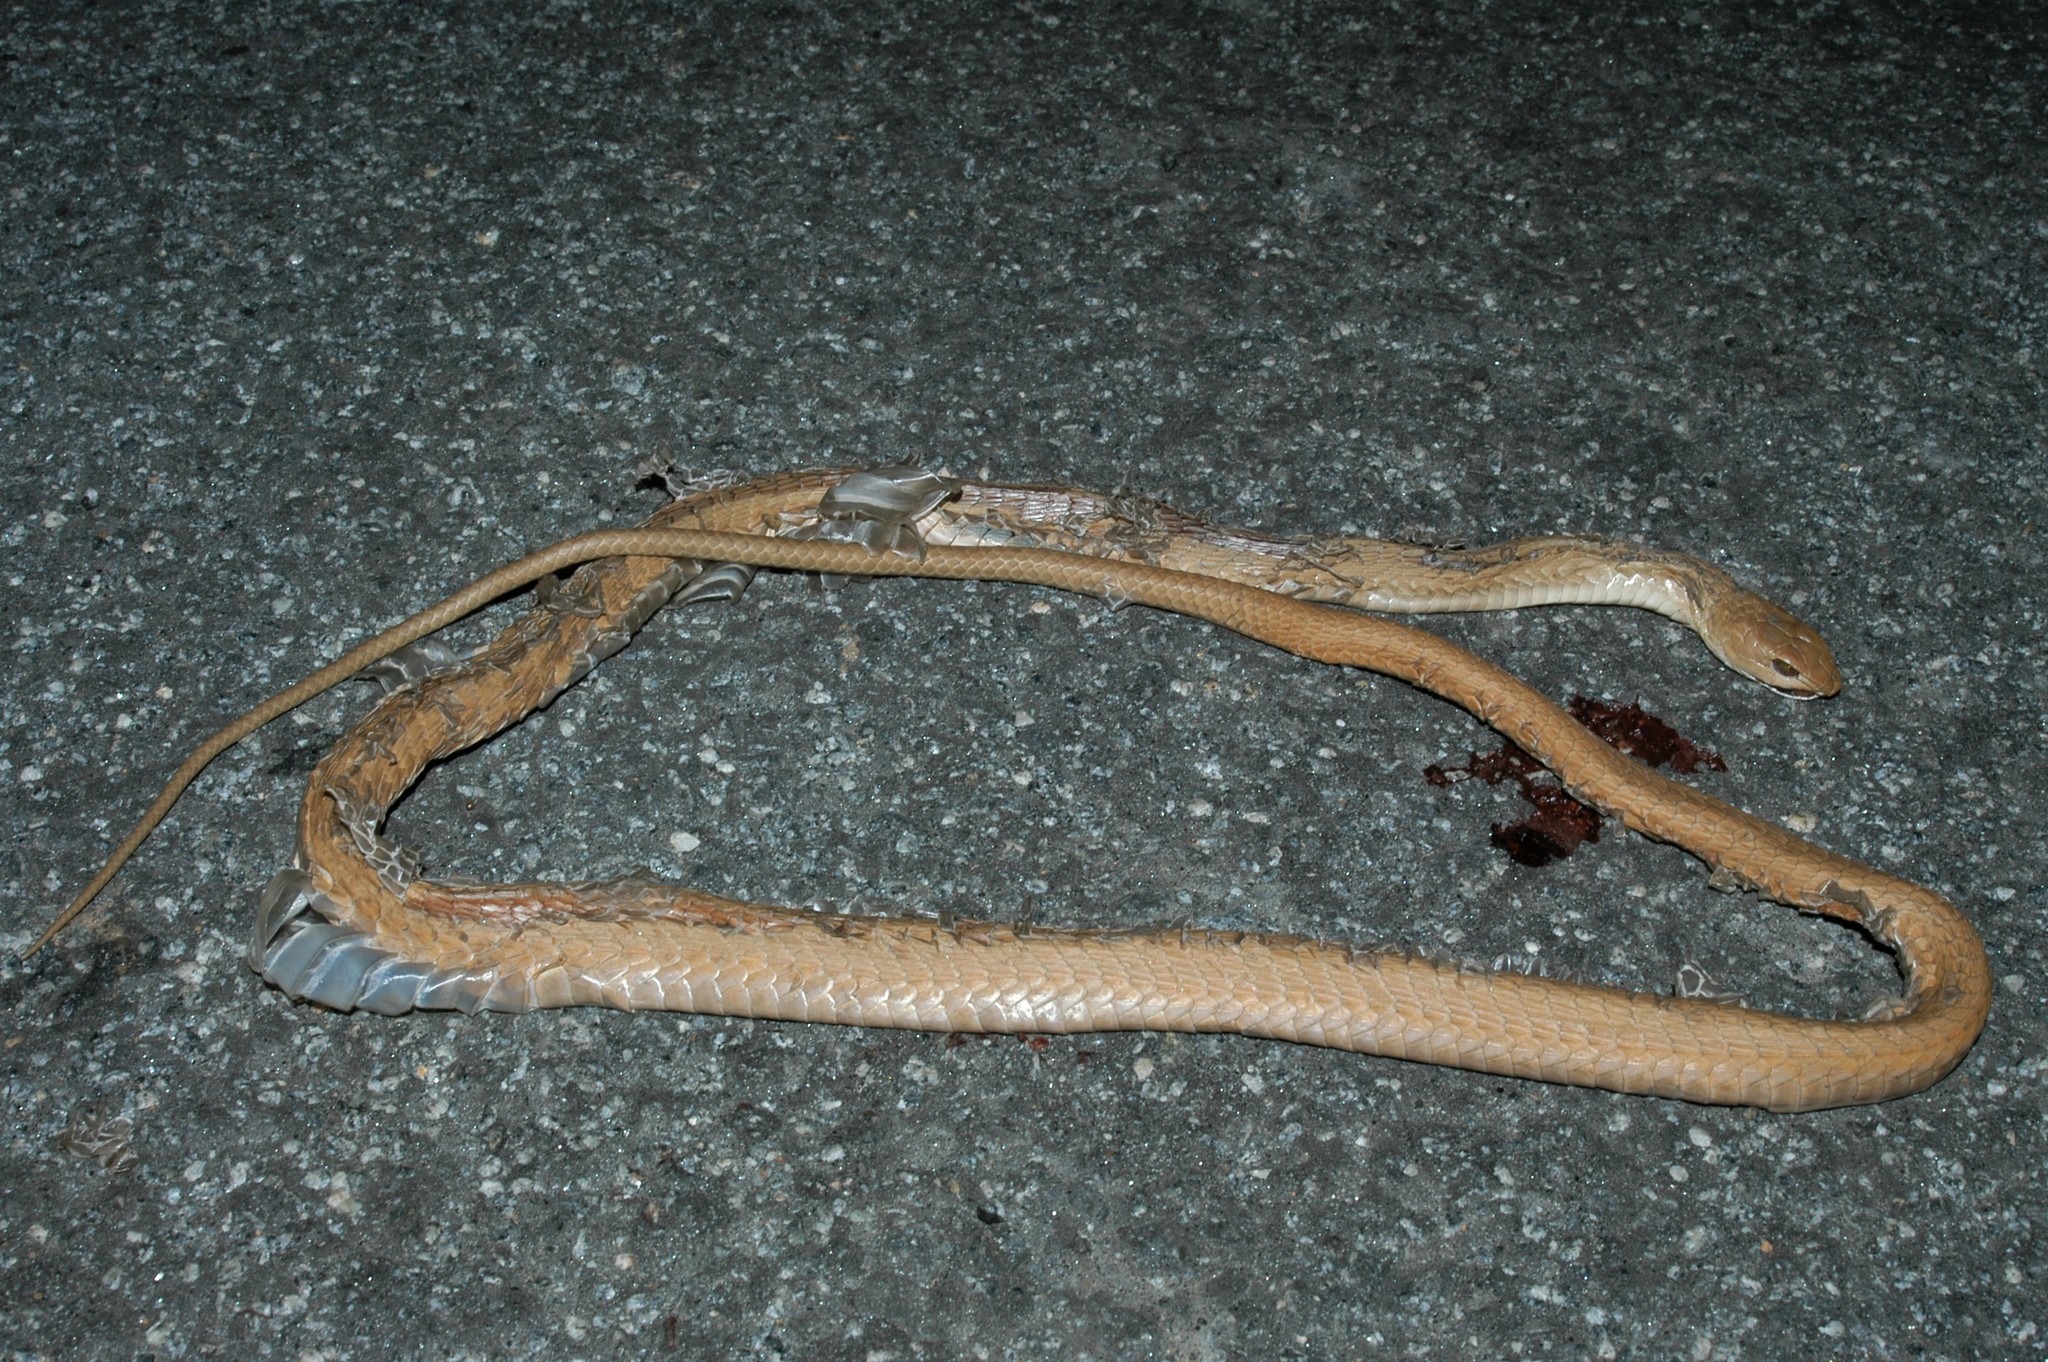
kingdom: Animalia
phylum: Chordata
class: Squamata
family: Colubridae
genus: Dispholidus
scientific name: Dispholidus typus
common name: Boomslang
